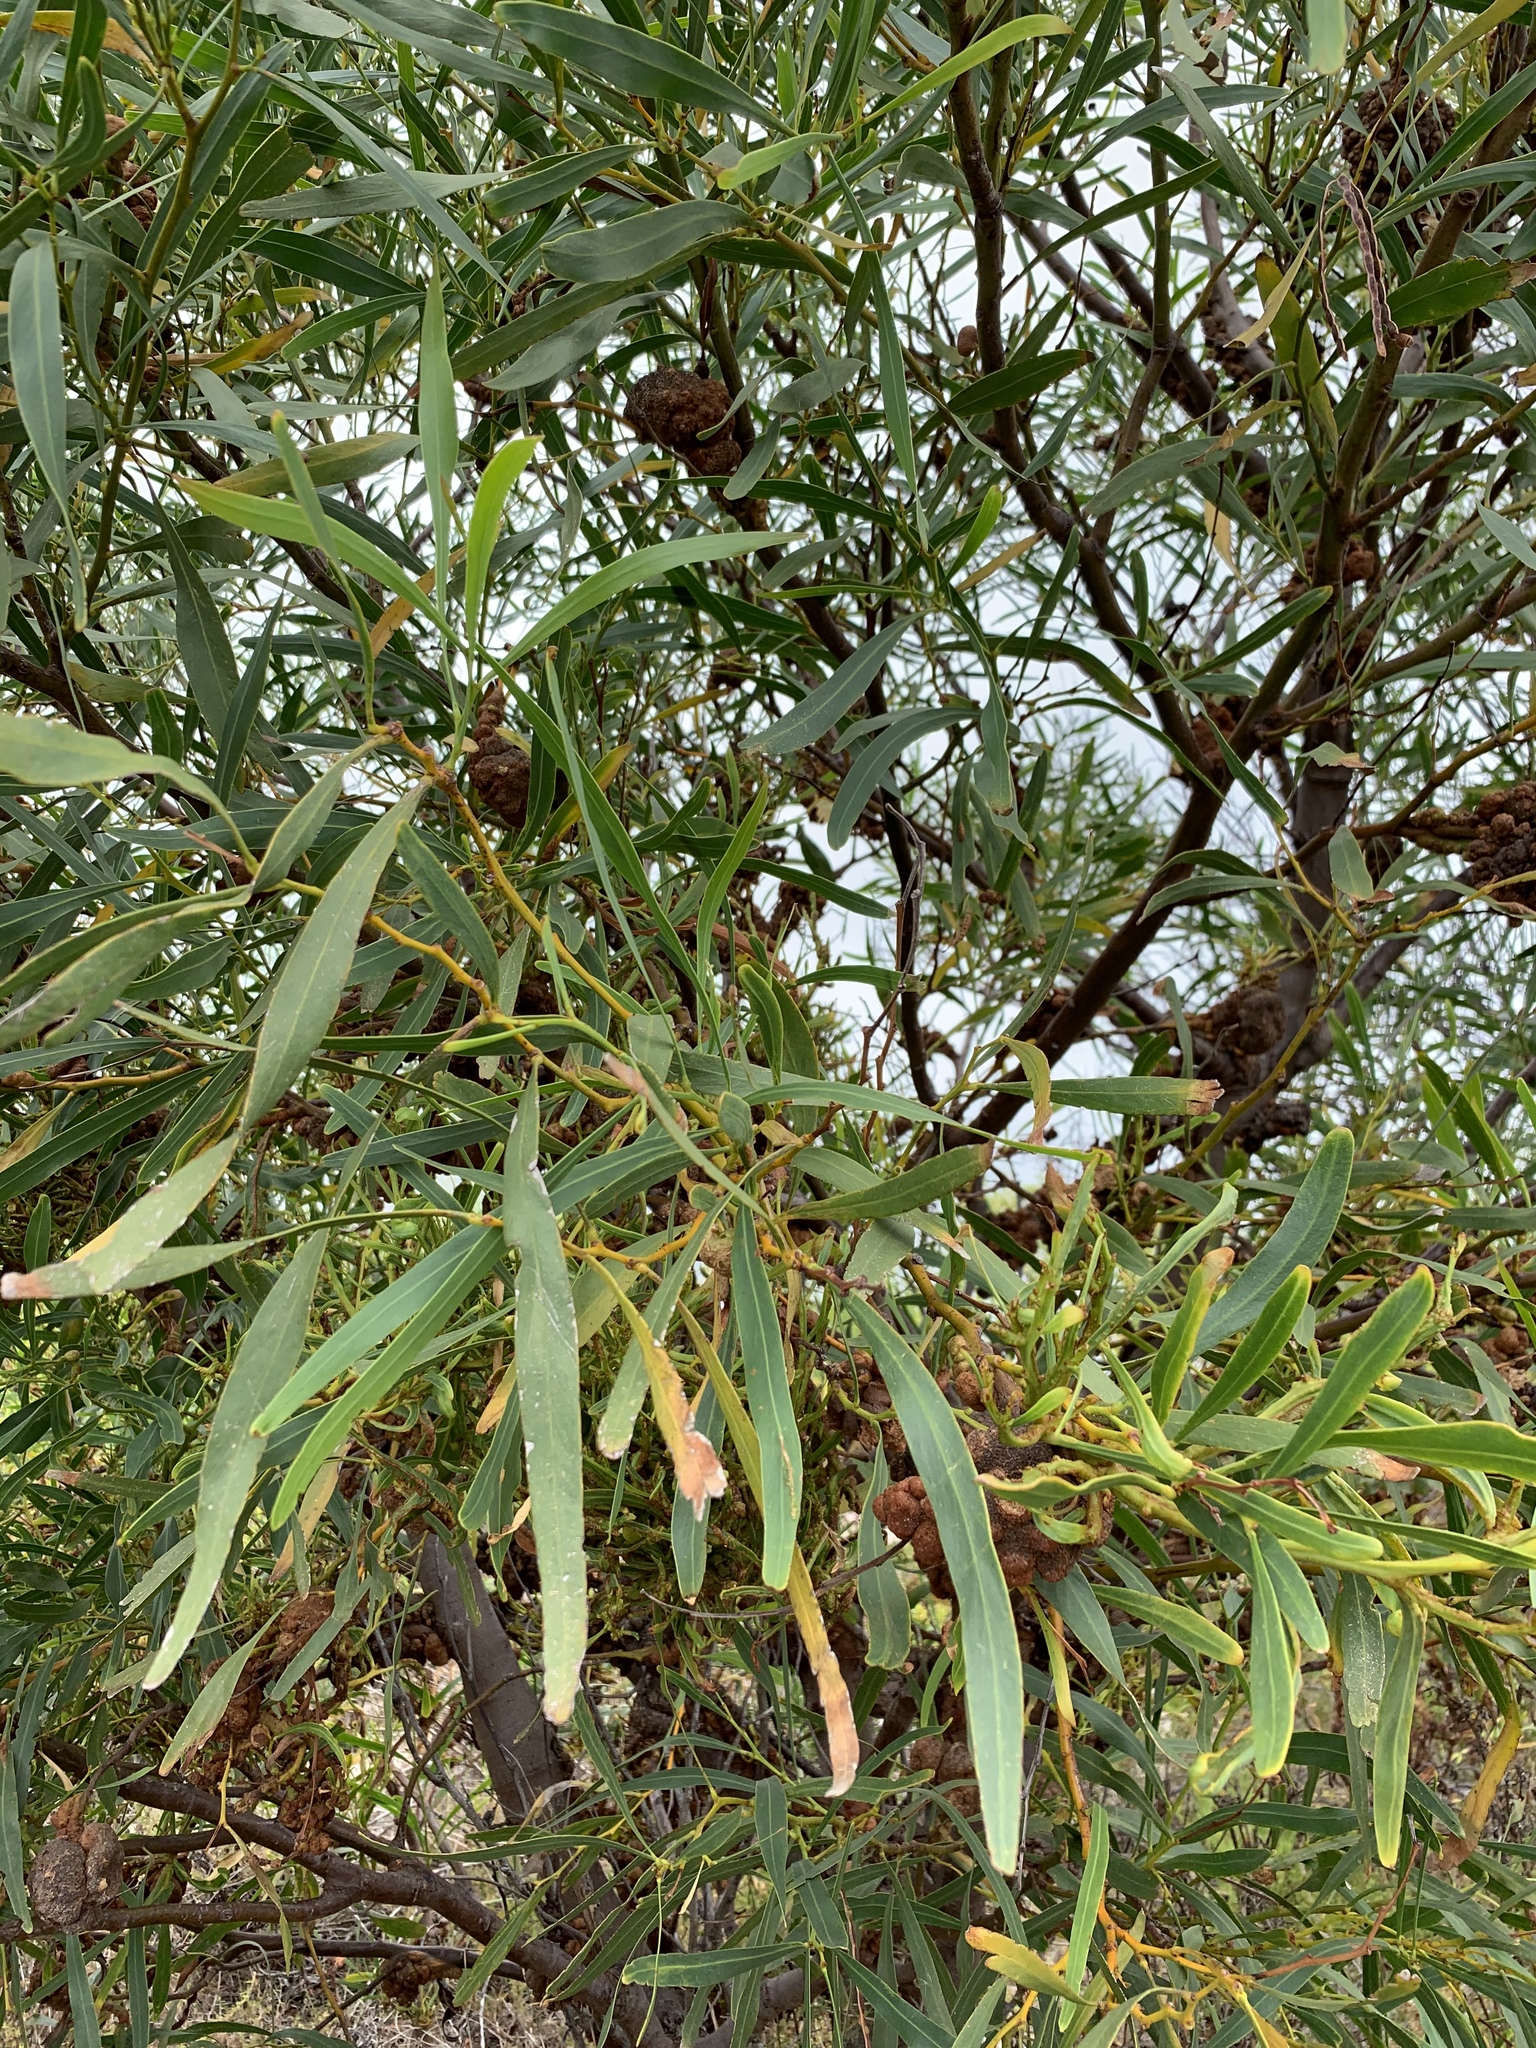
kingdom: Plantae
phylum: Tracheophyta
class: Magnoliopsida
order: Fabales
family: Fabaceae
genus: Acacia
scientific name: Acacia saligna
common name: Orange wattle
